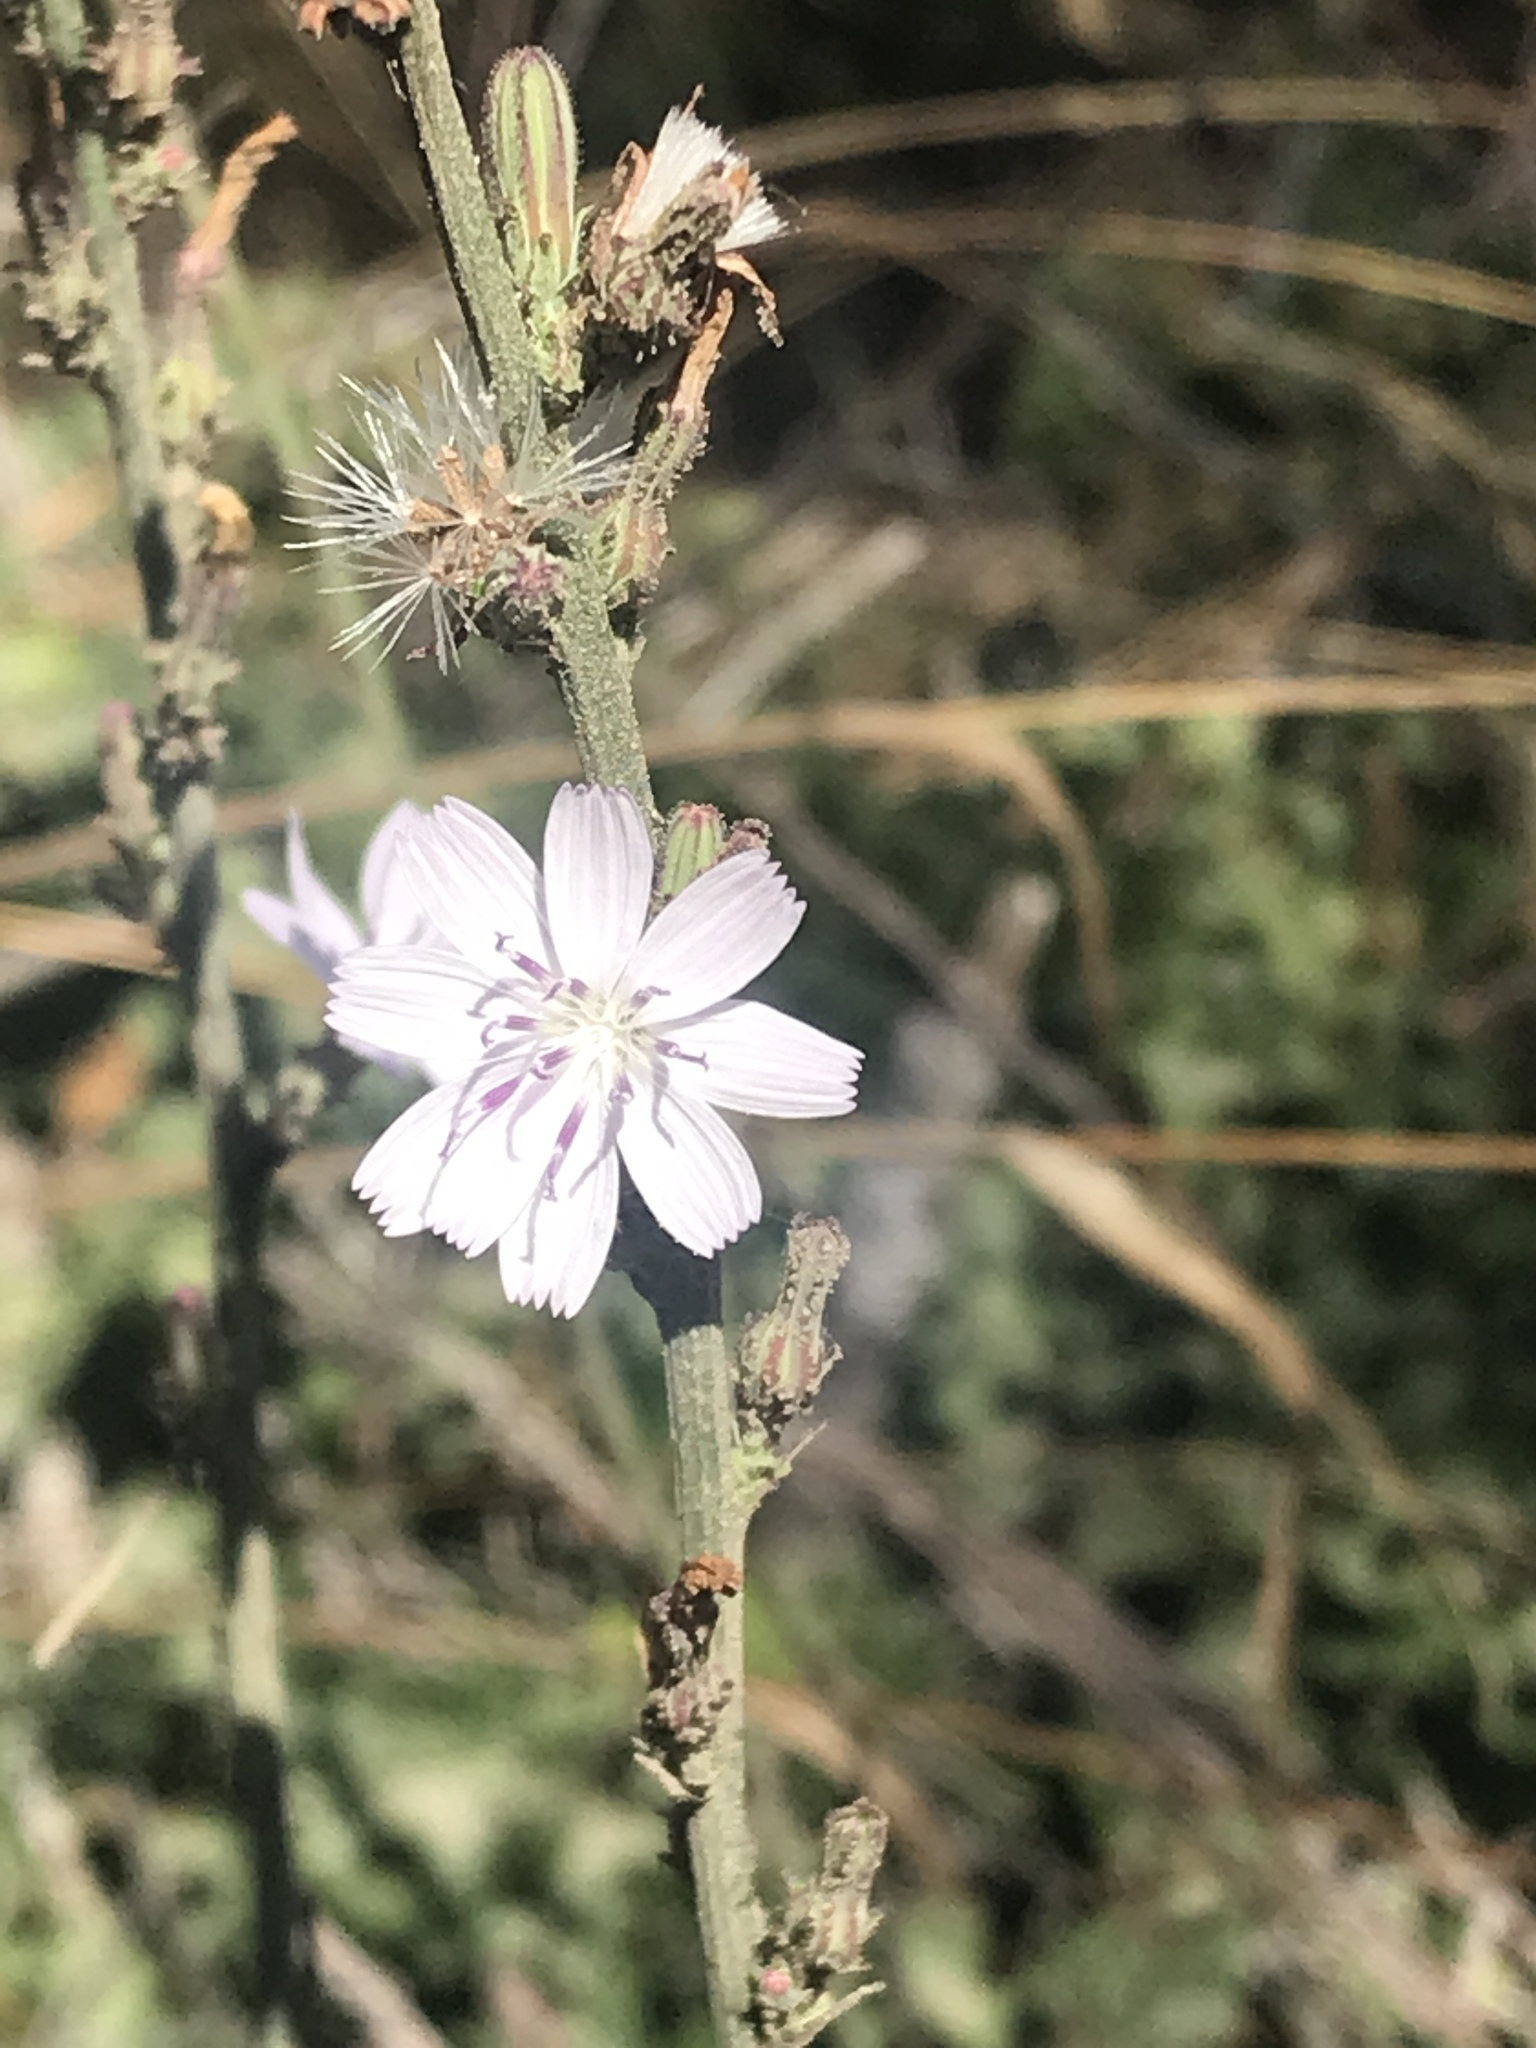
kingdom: Plantae
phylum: Tracheophyta
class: Magnoliopsida
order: Asterales
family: Asteraceae
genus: Stephanomeria
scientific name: Stephanomeria diegensis
